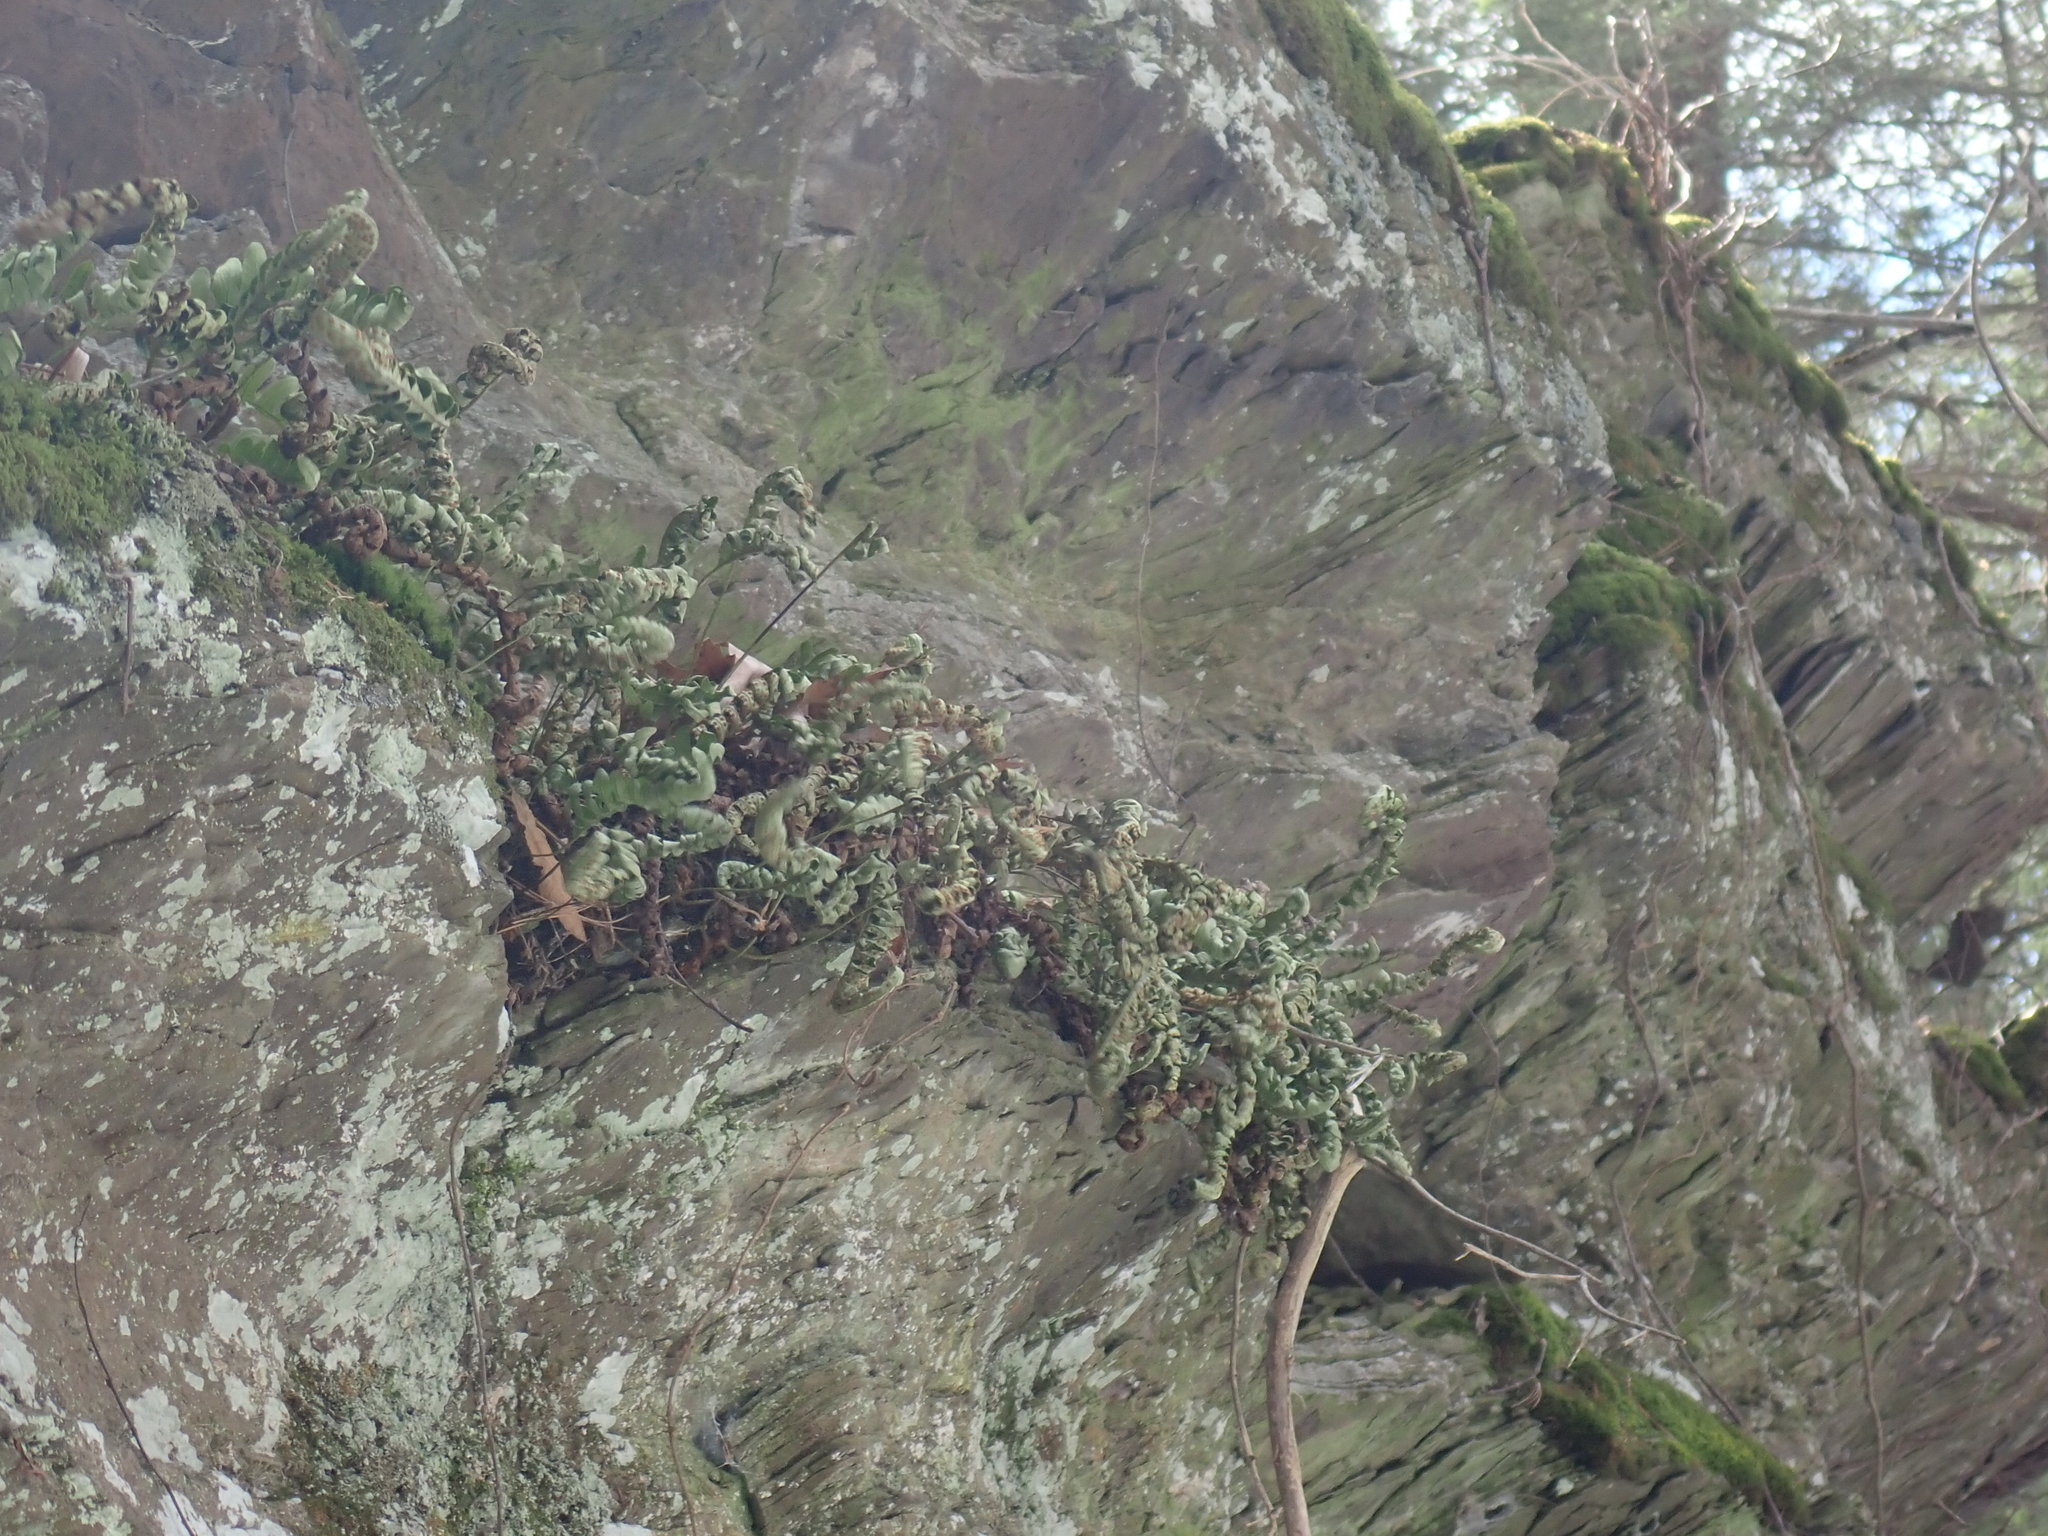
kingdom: Plantae
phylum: Tracheophyta
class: Polypodiopsida
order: Polypodiales
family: Polypodiaceae
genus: Polypodium
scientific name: Polypodium
